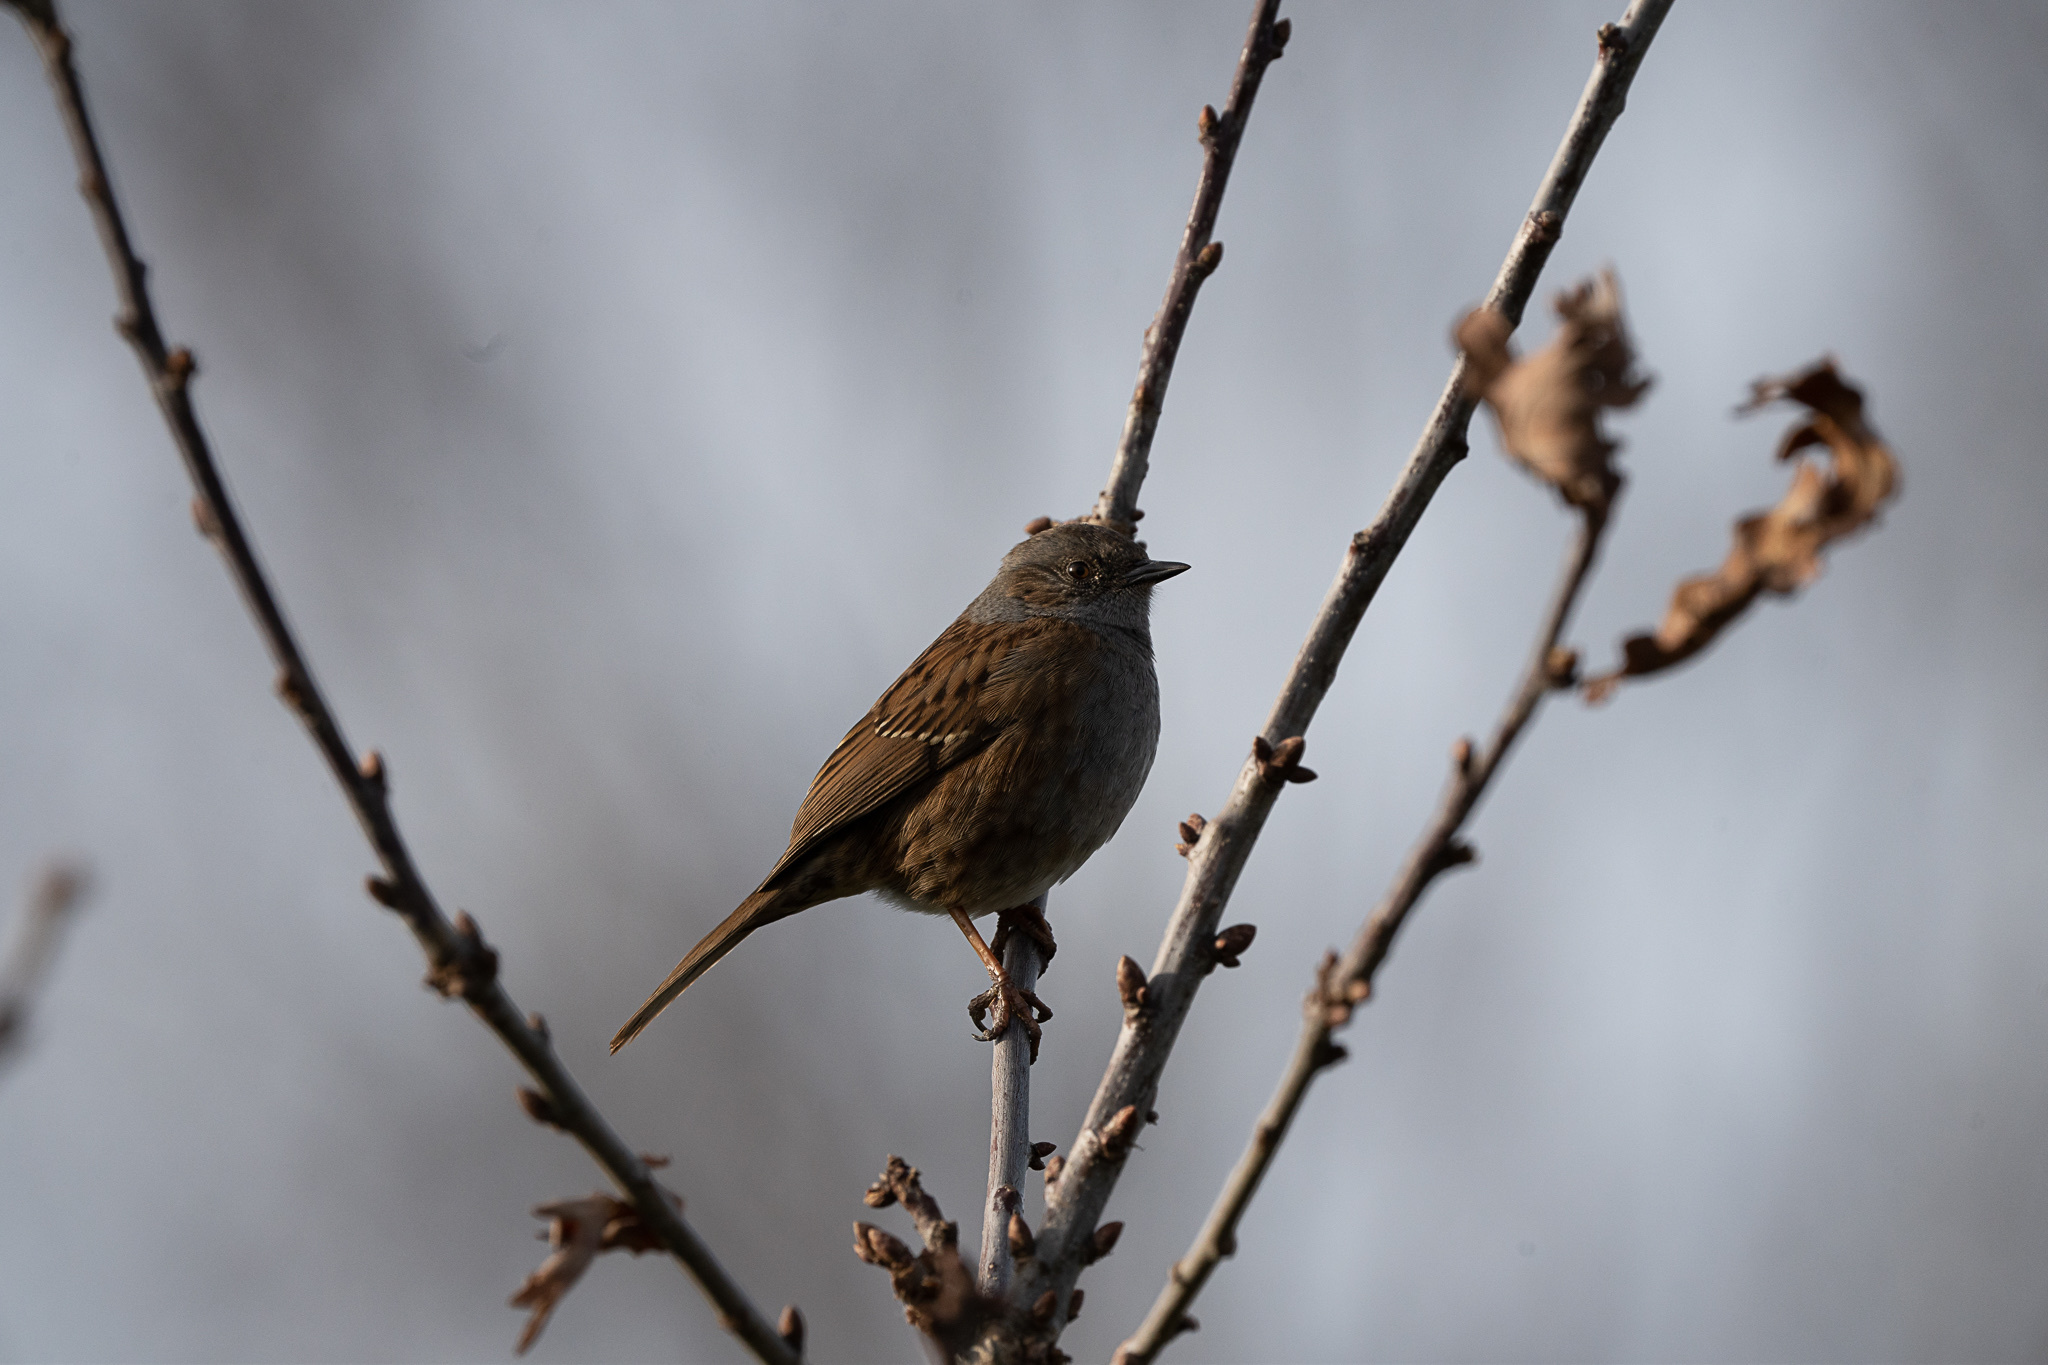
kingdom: Animalia
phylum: Chordata
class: Aves
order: Passeriformes
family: Prunellidae
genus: Prunella
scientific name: Prunella modularis
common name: Dunnock
